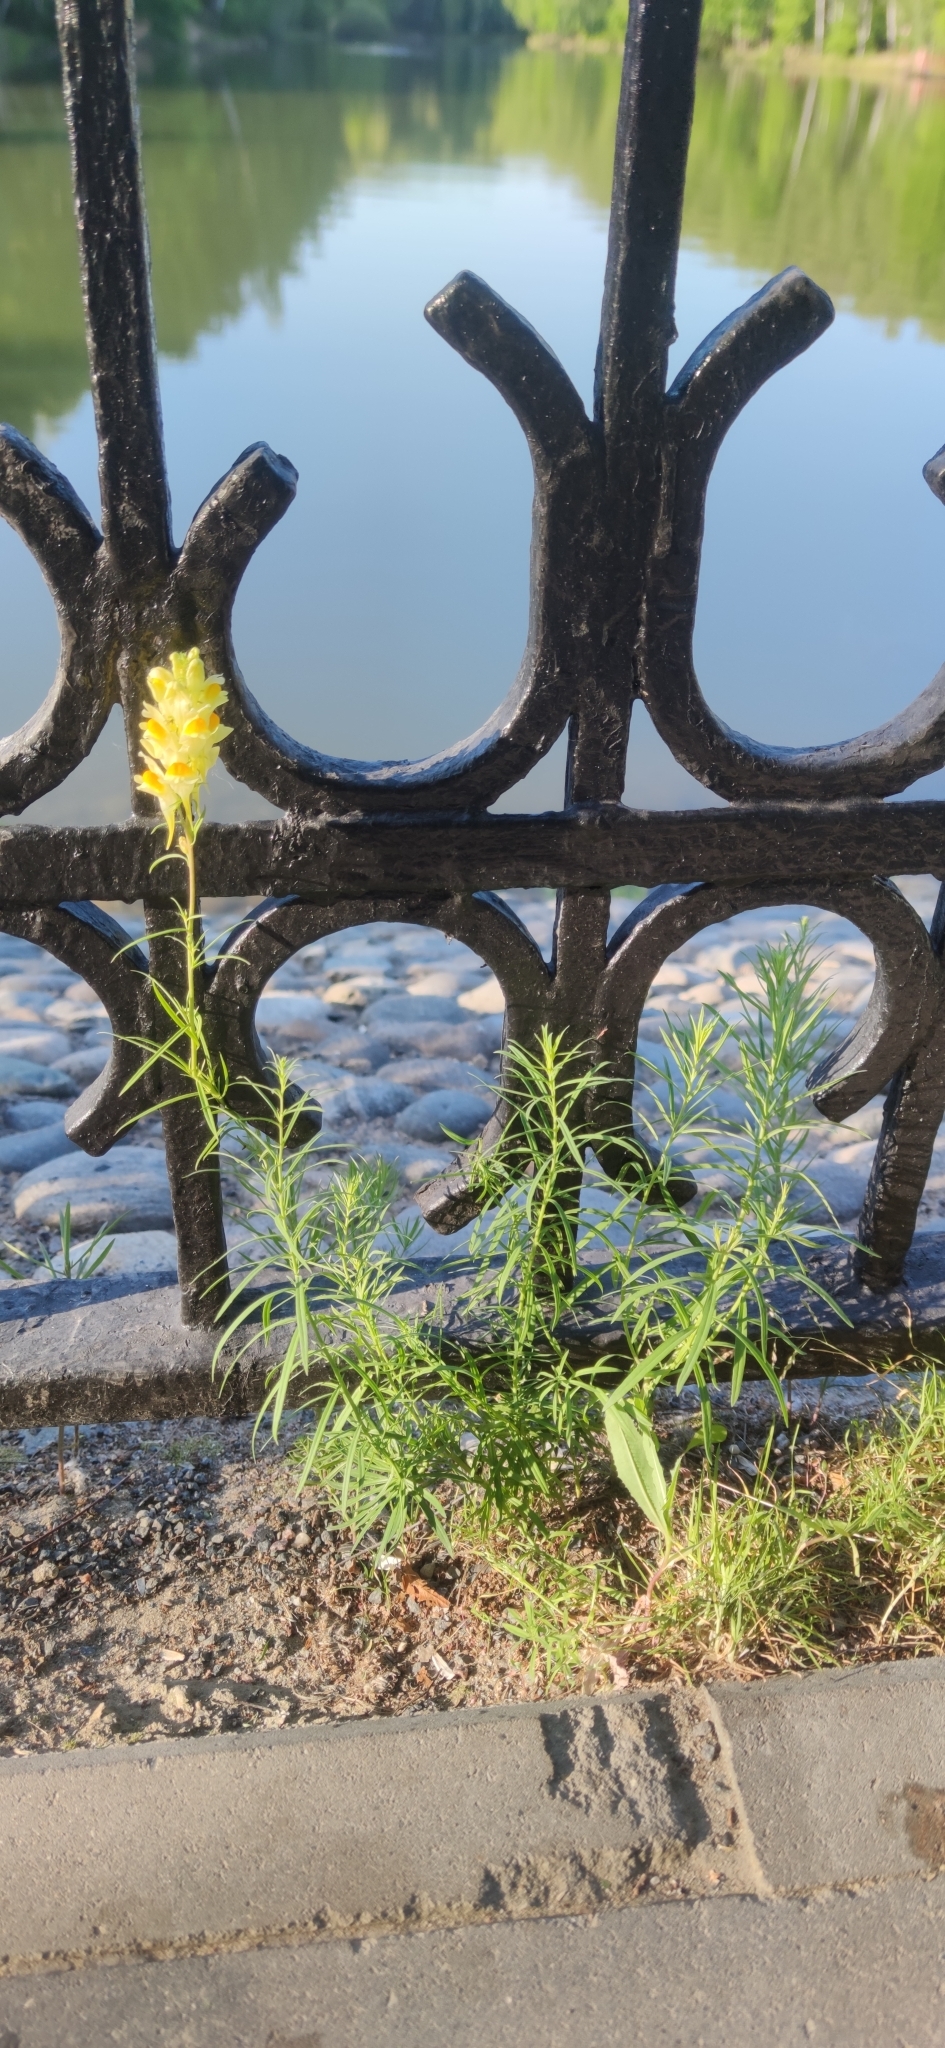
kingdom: Plantae
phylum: Tracheophyta
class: Magnoliopsida
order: Lamiales
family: Plantaginaceae
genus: Linaria
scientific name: Linaria vulgaris
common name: Butter and eggs
